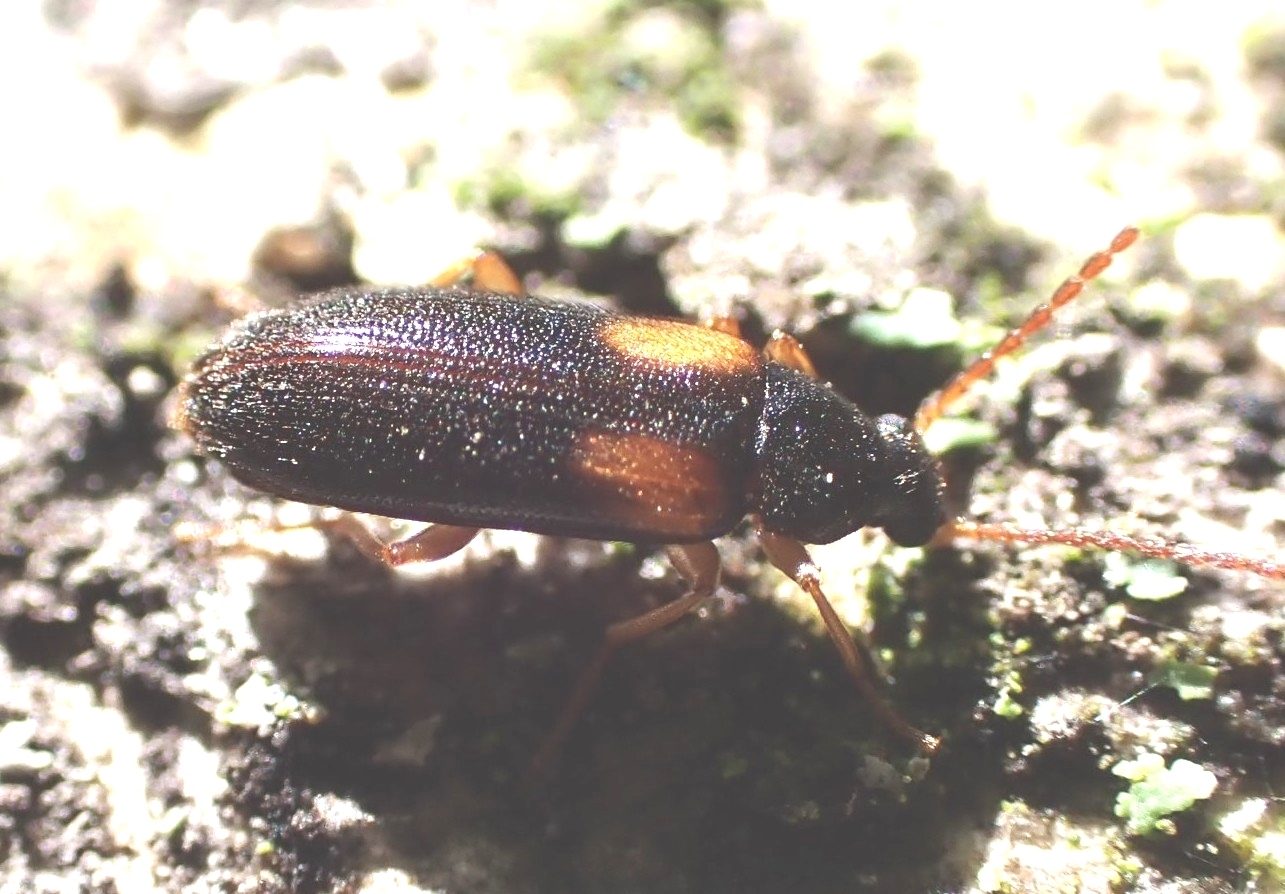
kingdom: Animalia
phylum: Arthropoda
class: Insecta
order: Coleoptera
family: Tenebrionidae
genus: Mycetochara
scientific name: Mycetochara flavipes
